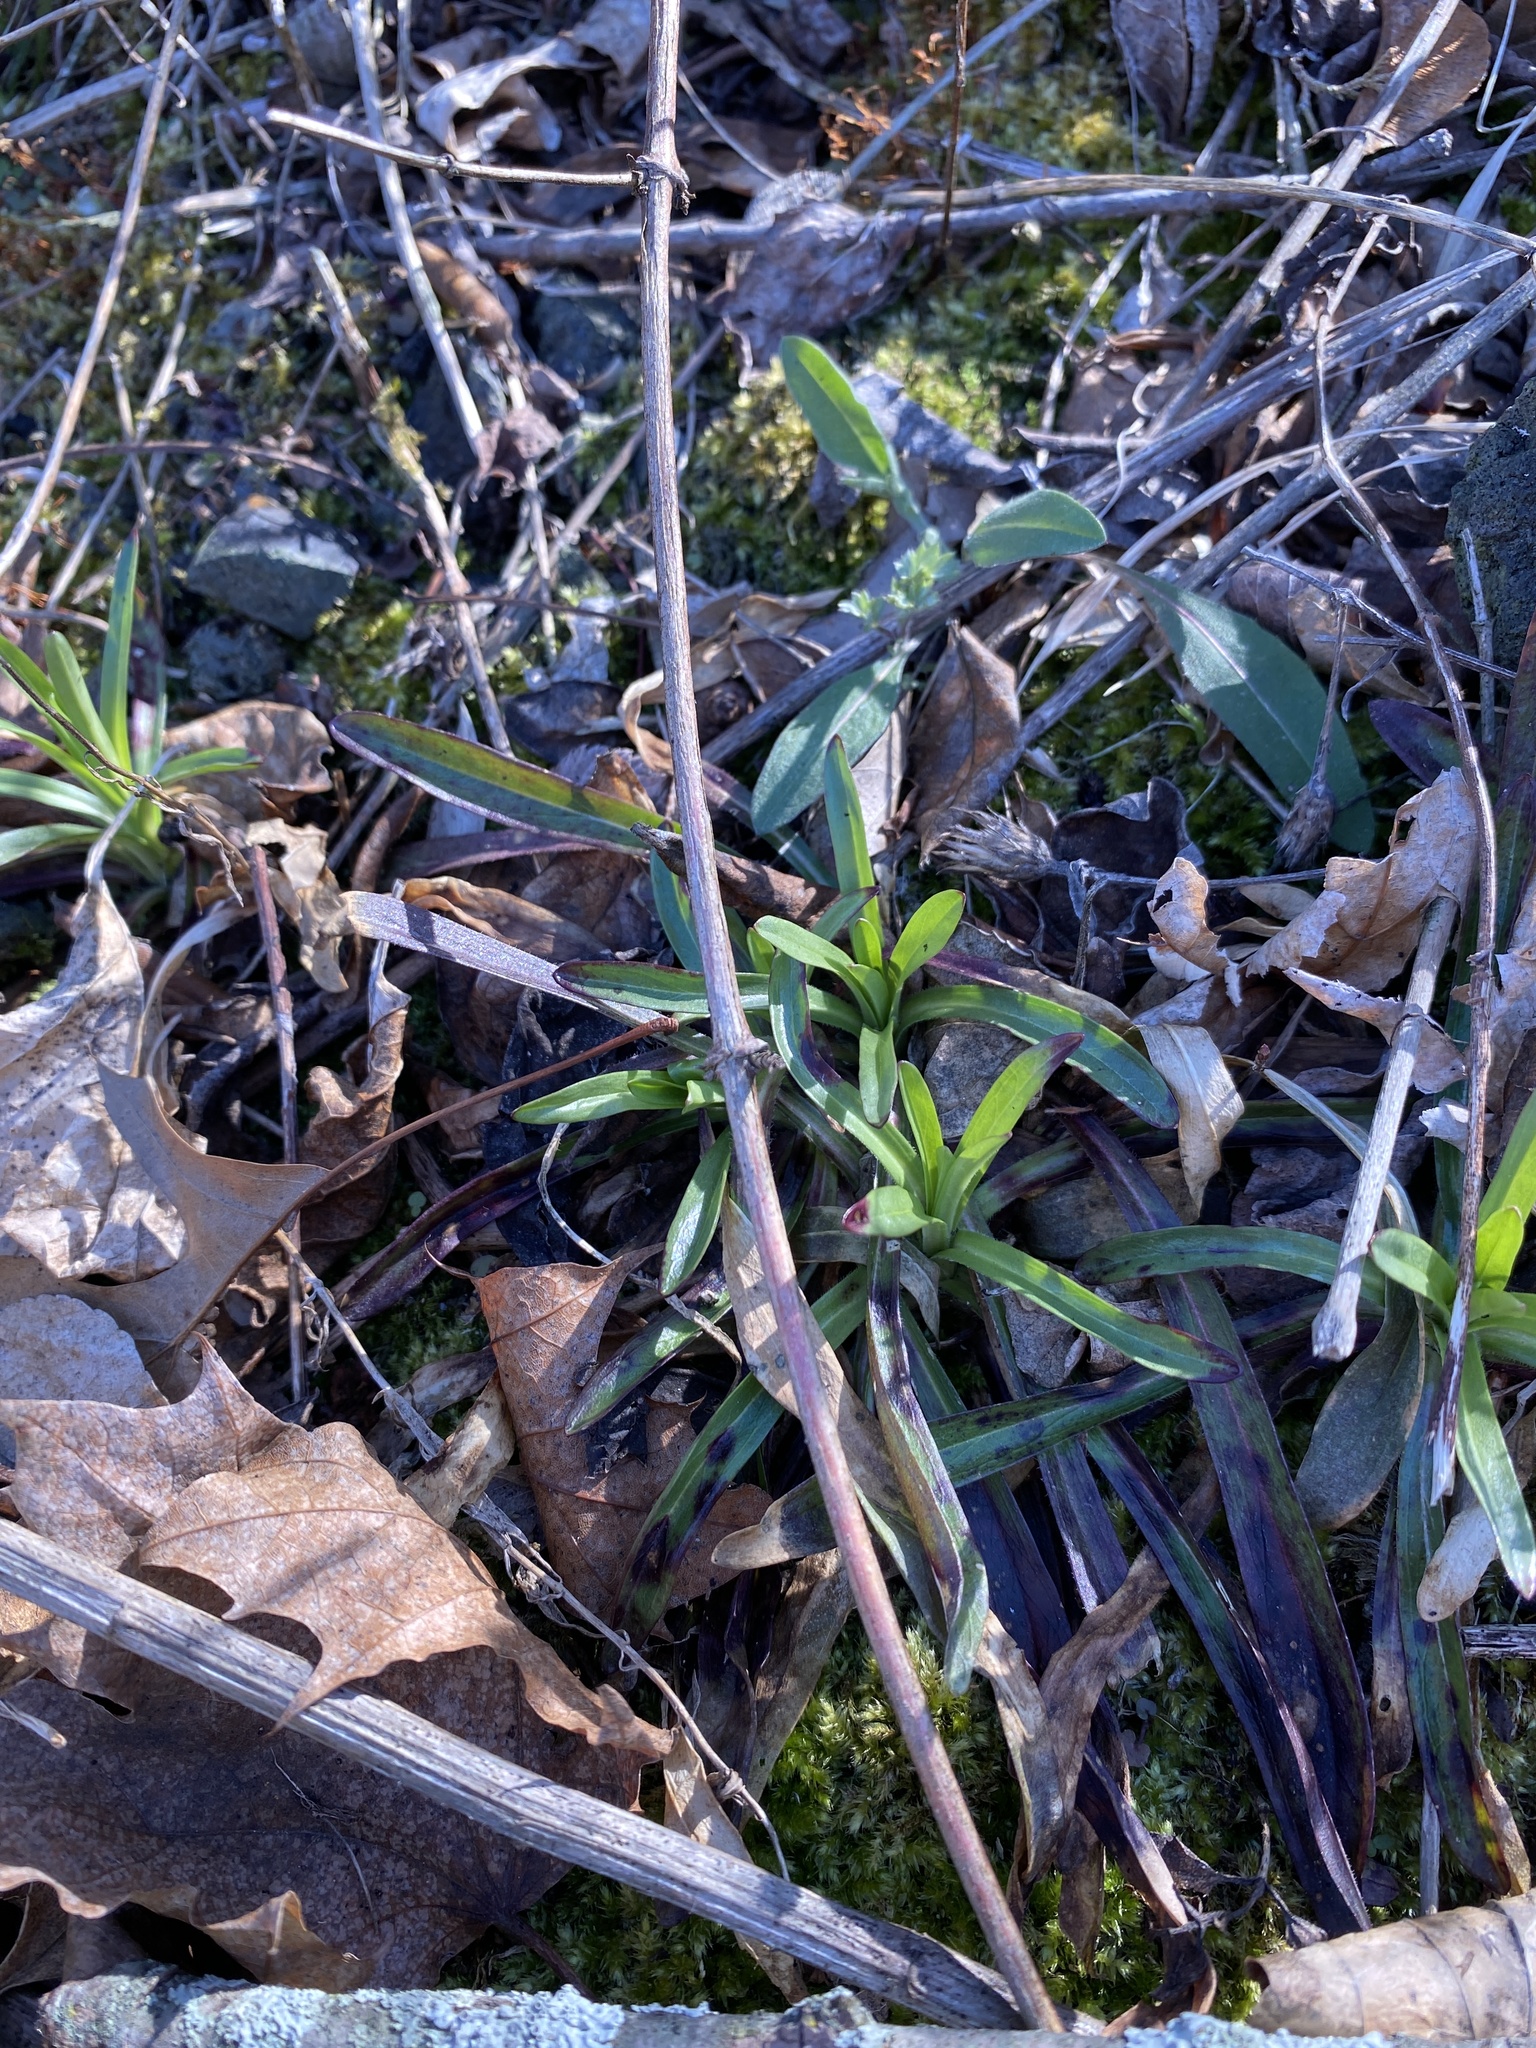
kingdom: Plantae
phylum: Tracheophyta
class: Magnoliopsida
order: Caryophyllales
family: Caryophyllaceae
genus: Dianthus
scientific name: Dianthus armeria
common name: Deptford pink
